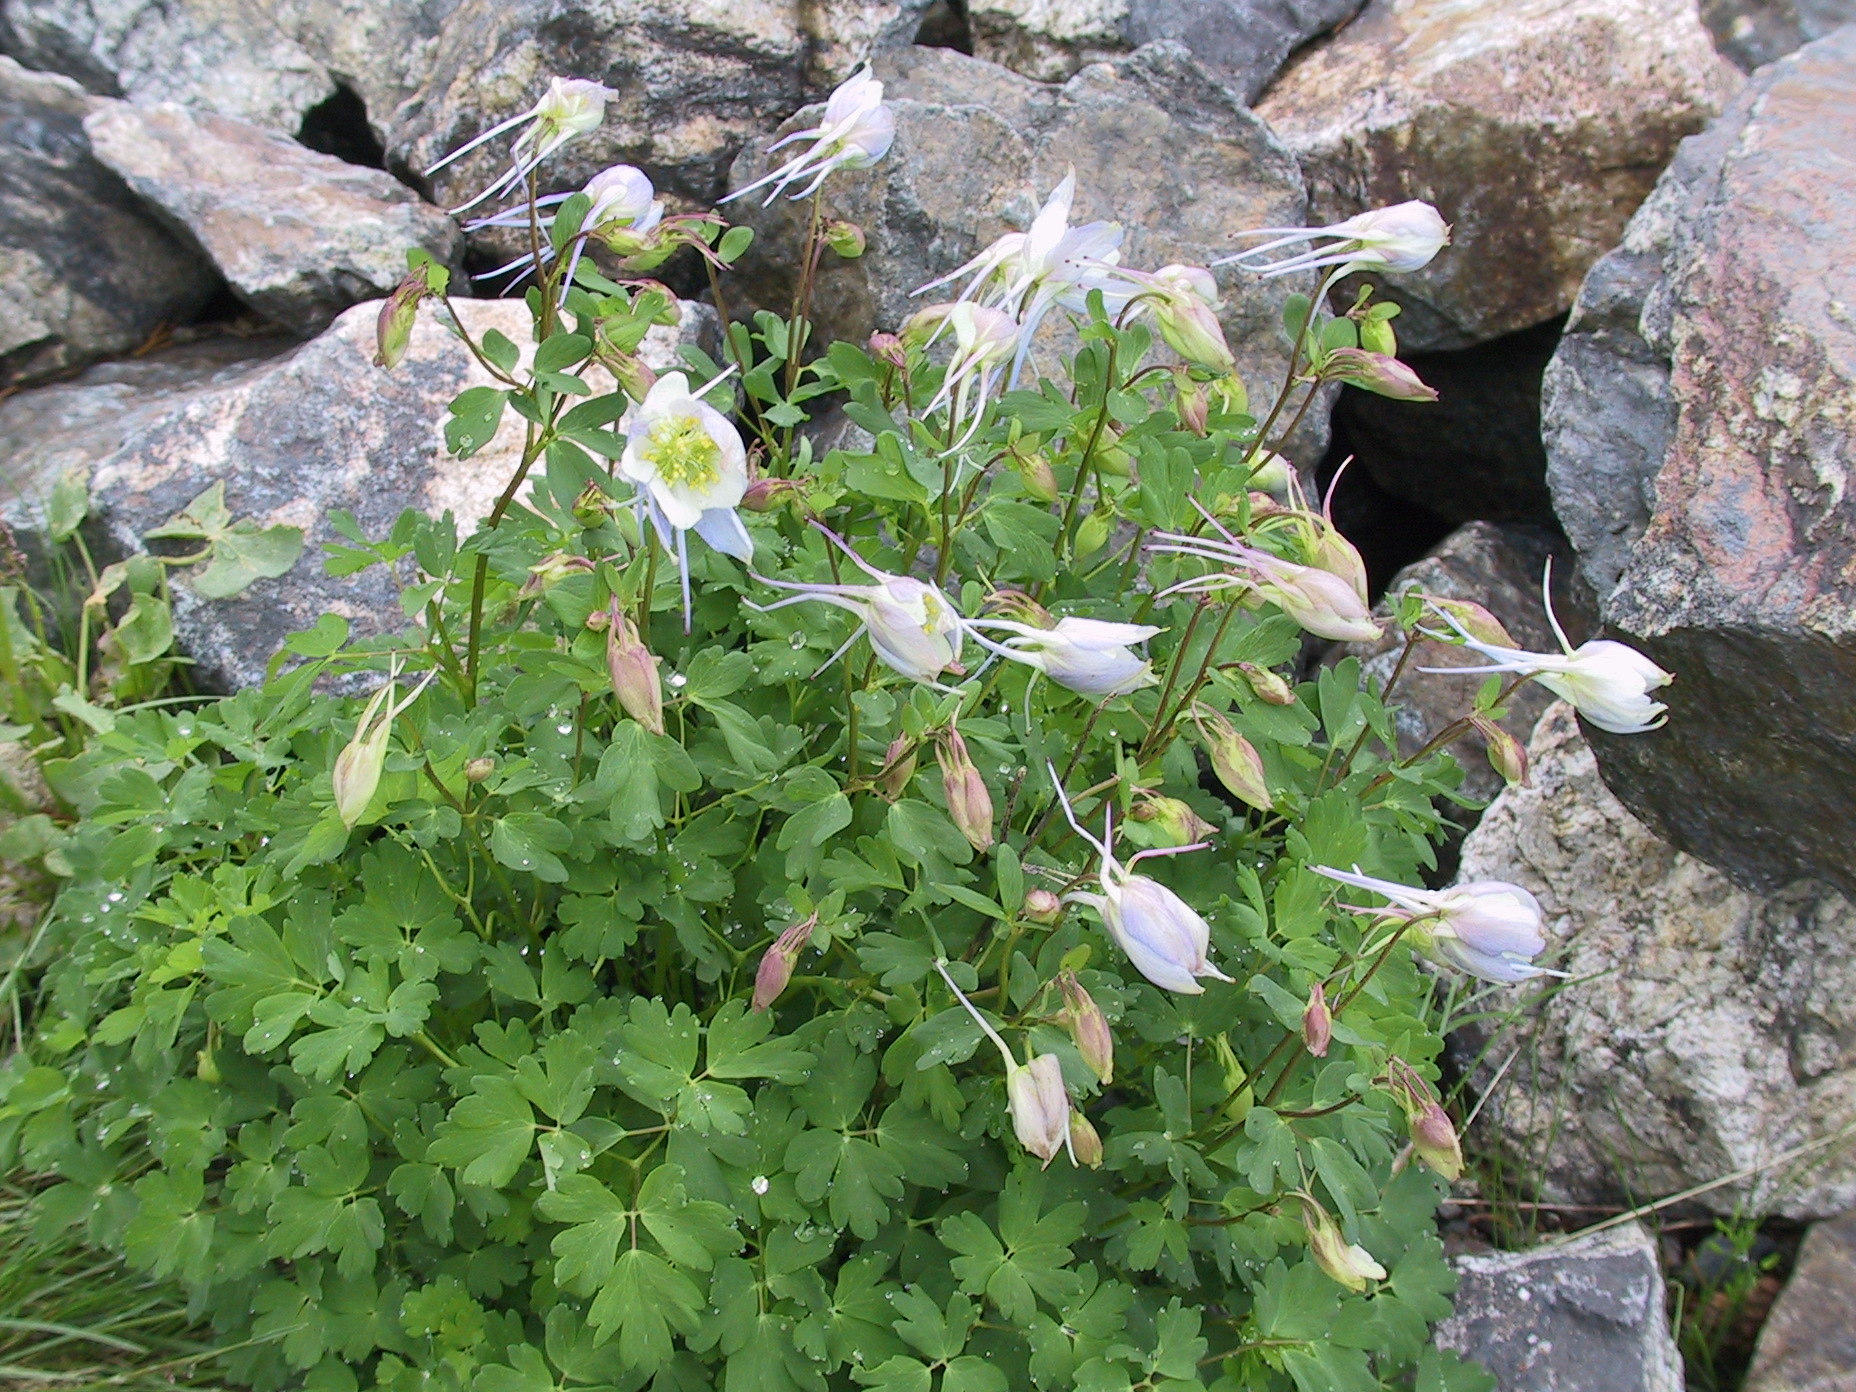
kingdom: Plantae
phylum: Tracheophyta
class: Magnoliopsida
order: Ranunculales
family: Ranunculaceae
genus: Aquilegia
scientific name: Aquilegia coerulea
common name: Rocky mountain columbine
